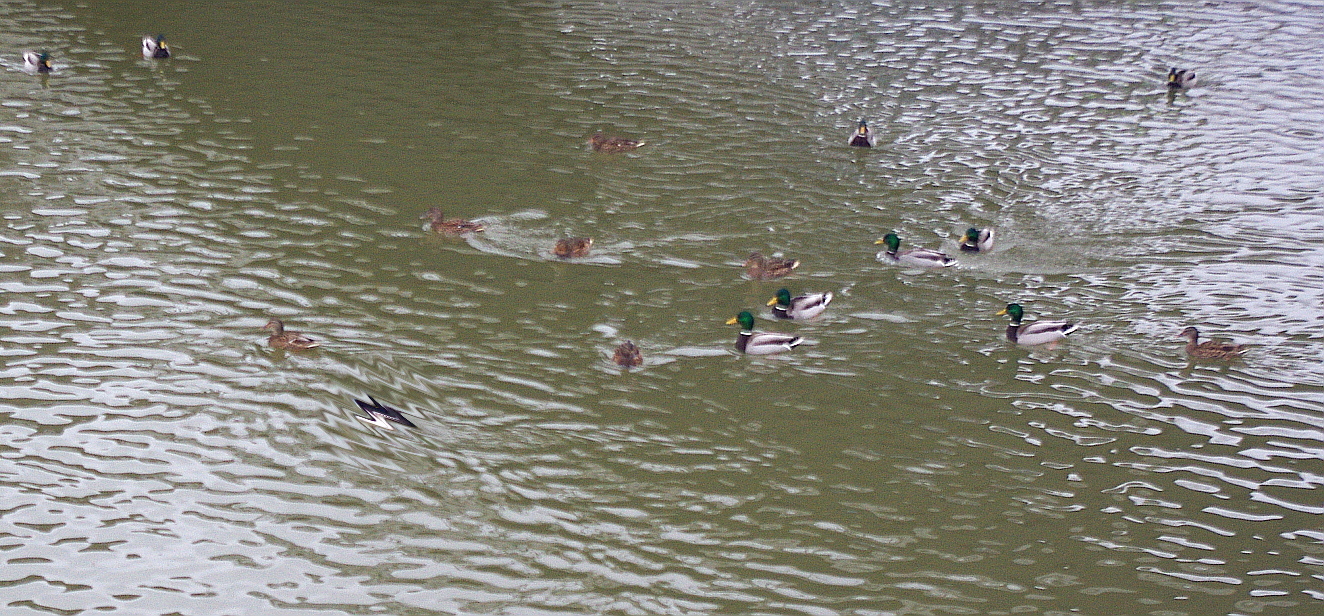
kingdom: Animalia
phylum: Chordata
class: Aves
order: Anseriformes
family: Anatidae
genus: Anas
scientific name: Anas platyrhynchos
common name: Mallard
